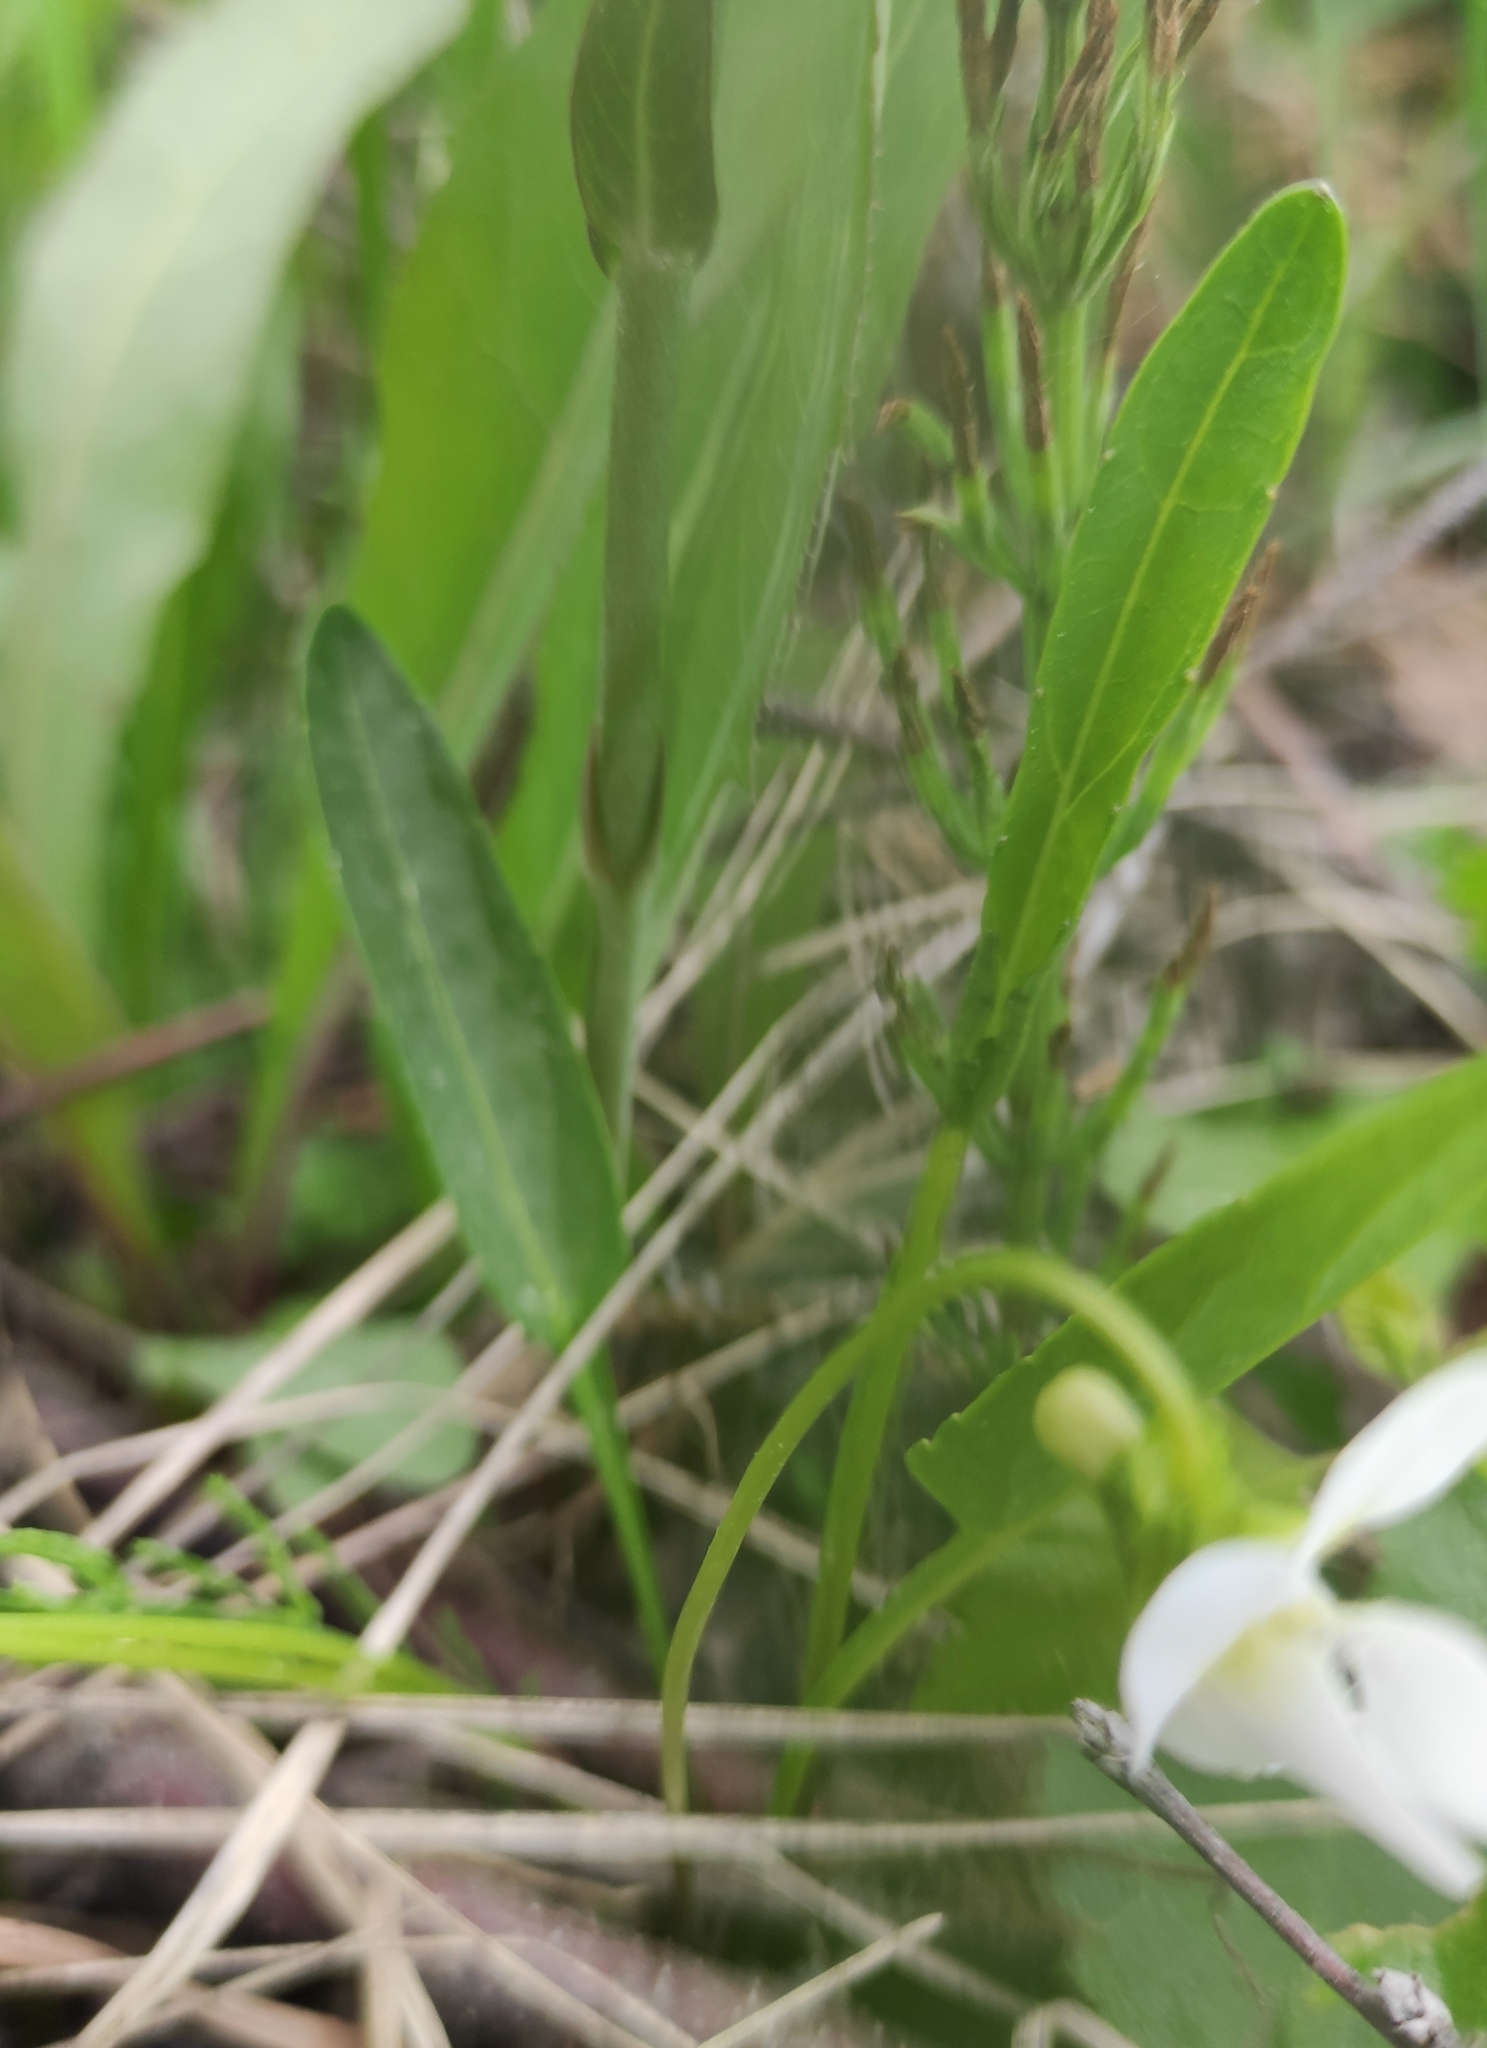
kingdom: Plantae
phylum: Tracheophyta
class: Magnoliopsida
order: Malpighiales
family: Violaceae
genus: Viola
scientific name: Viola patrinii
